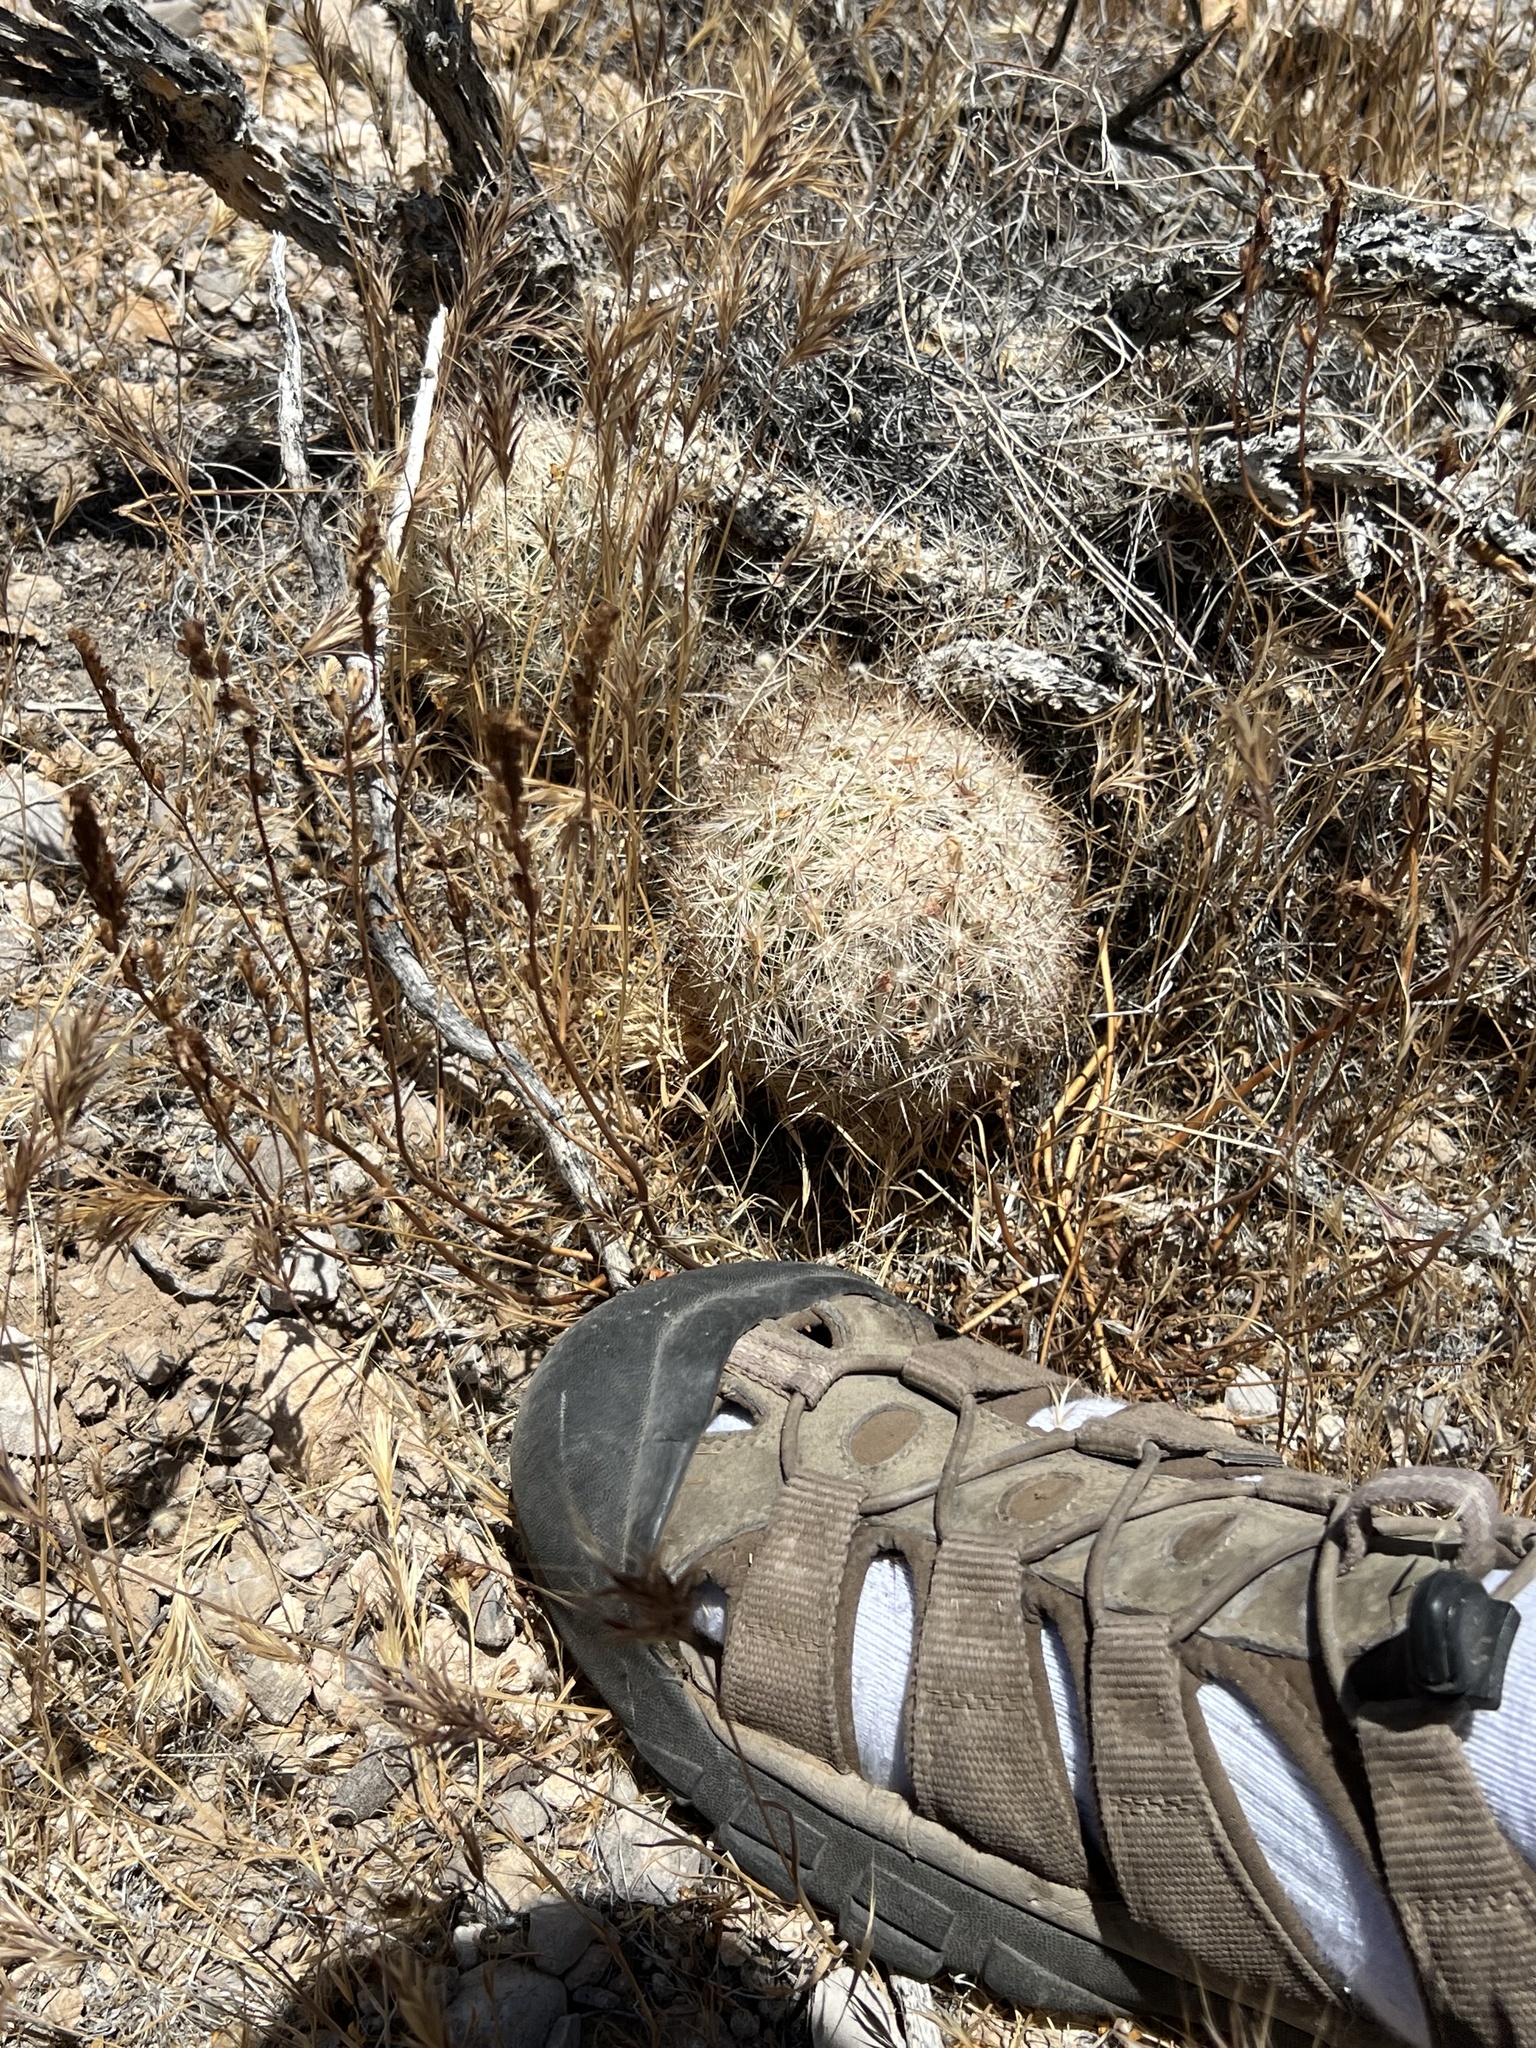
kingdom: Plantae
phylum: Tracheophyta
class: Magnoliopsida
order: Caryophyllales
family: Cactaceae
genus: Pelecyphora
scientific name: Pelecyphora dasyacantha
